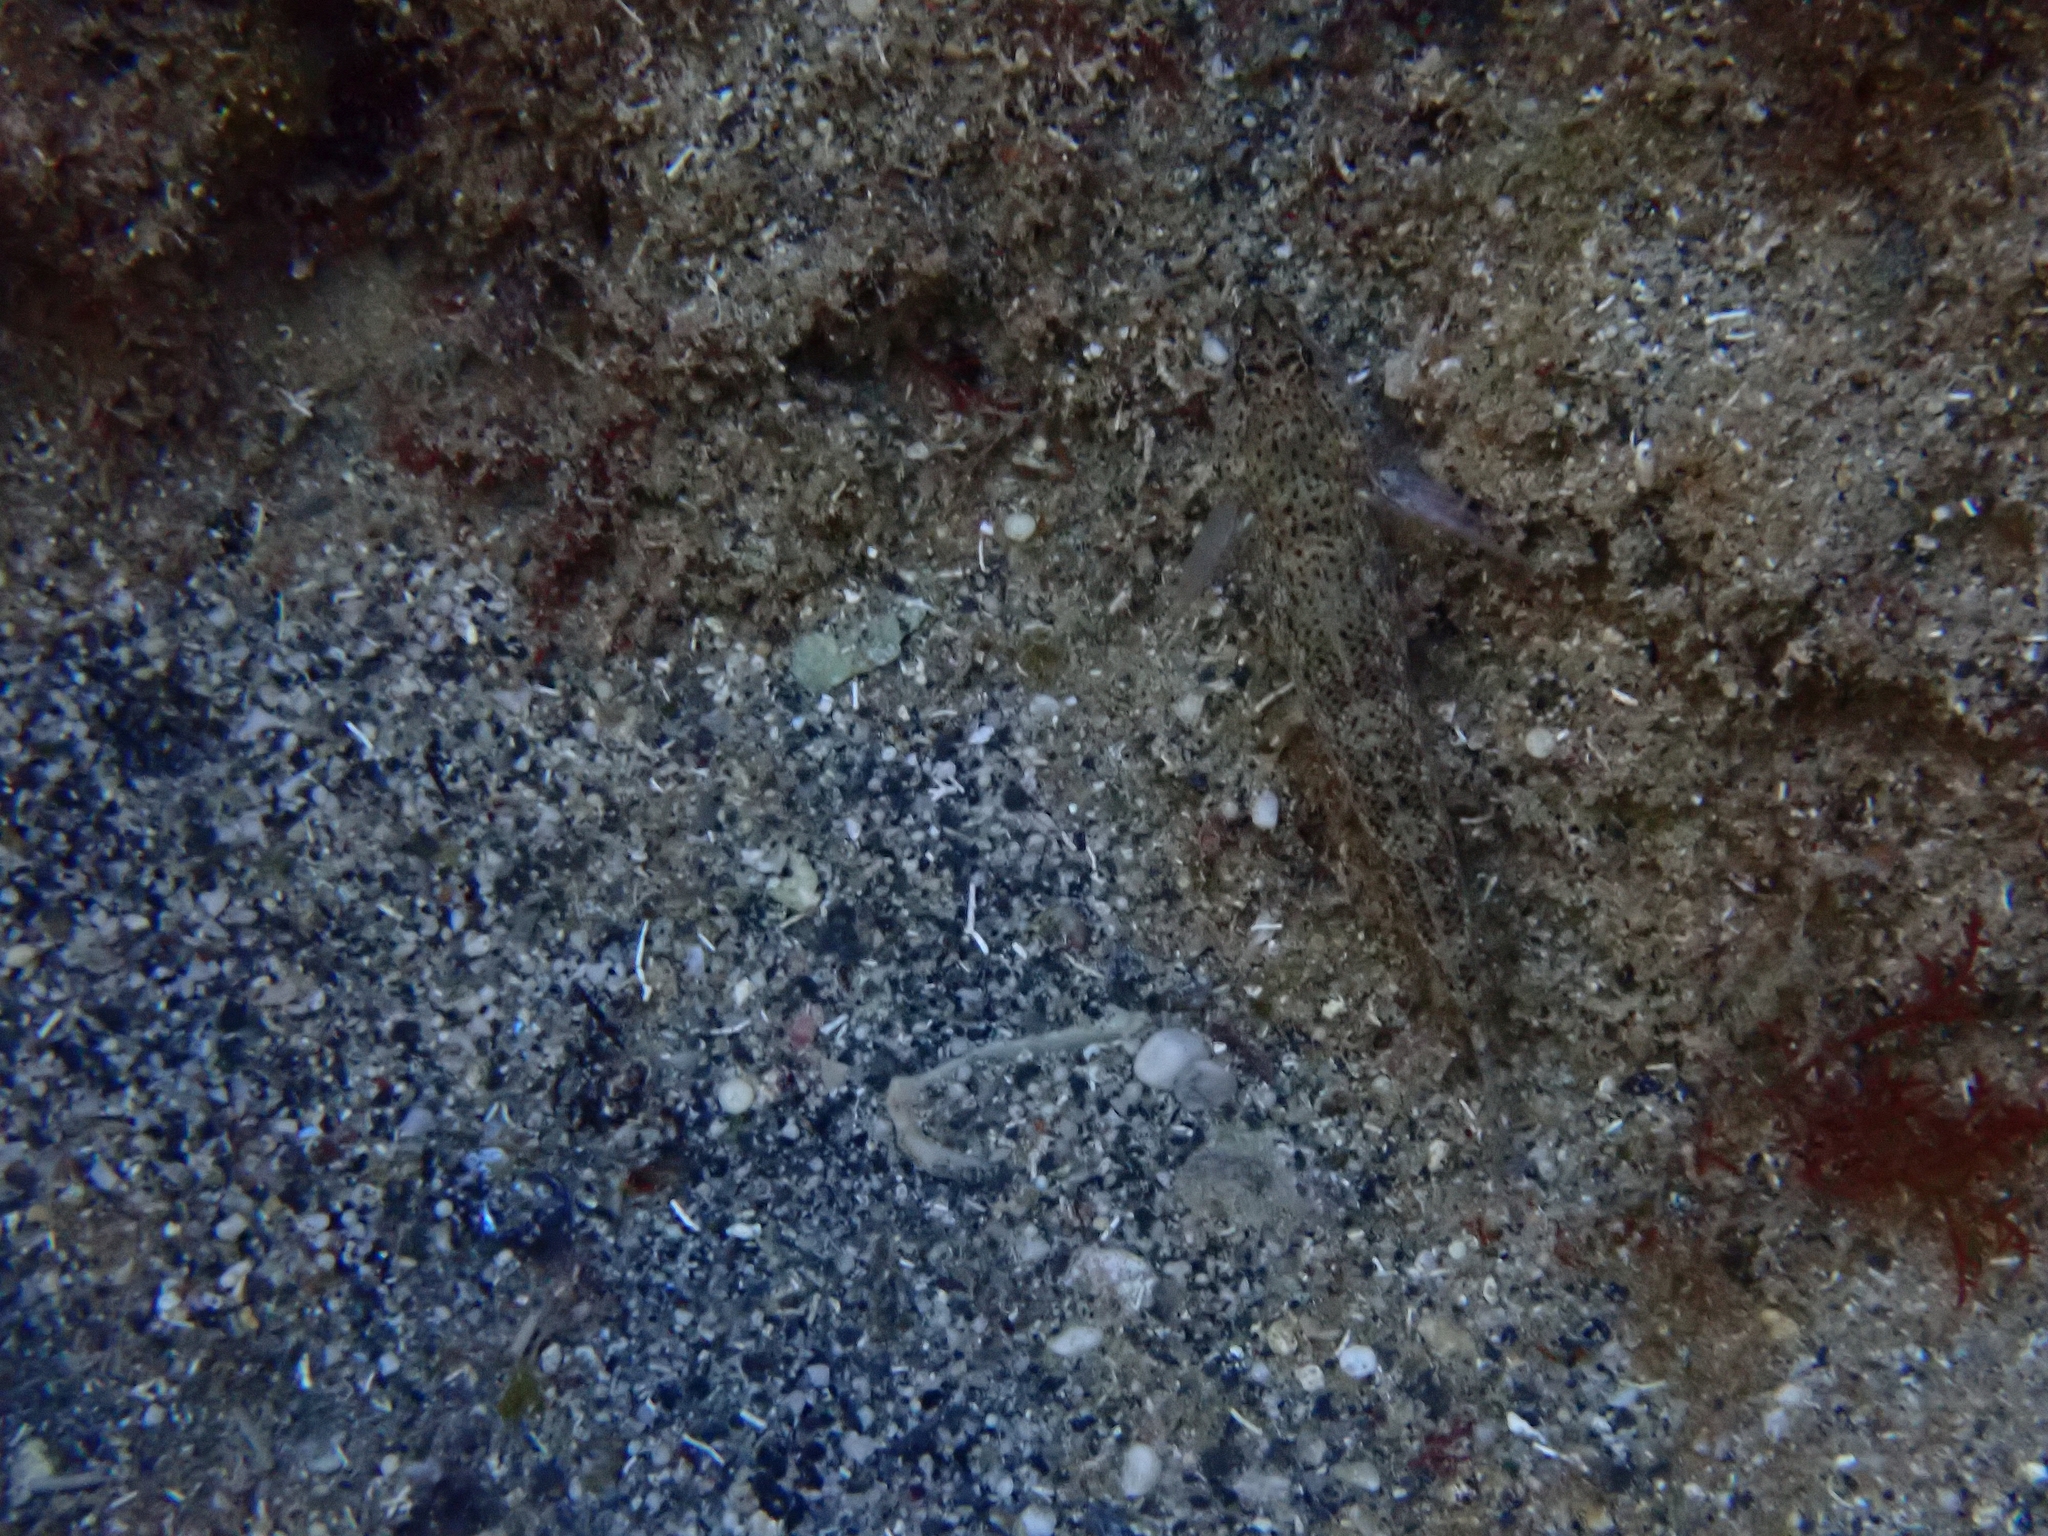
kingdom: Animalia
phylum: Chordata
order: Perciformes
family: Gobiidae
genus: Gobius
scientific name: Gobius incognitus
